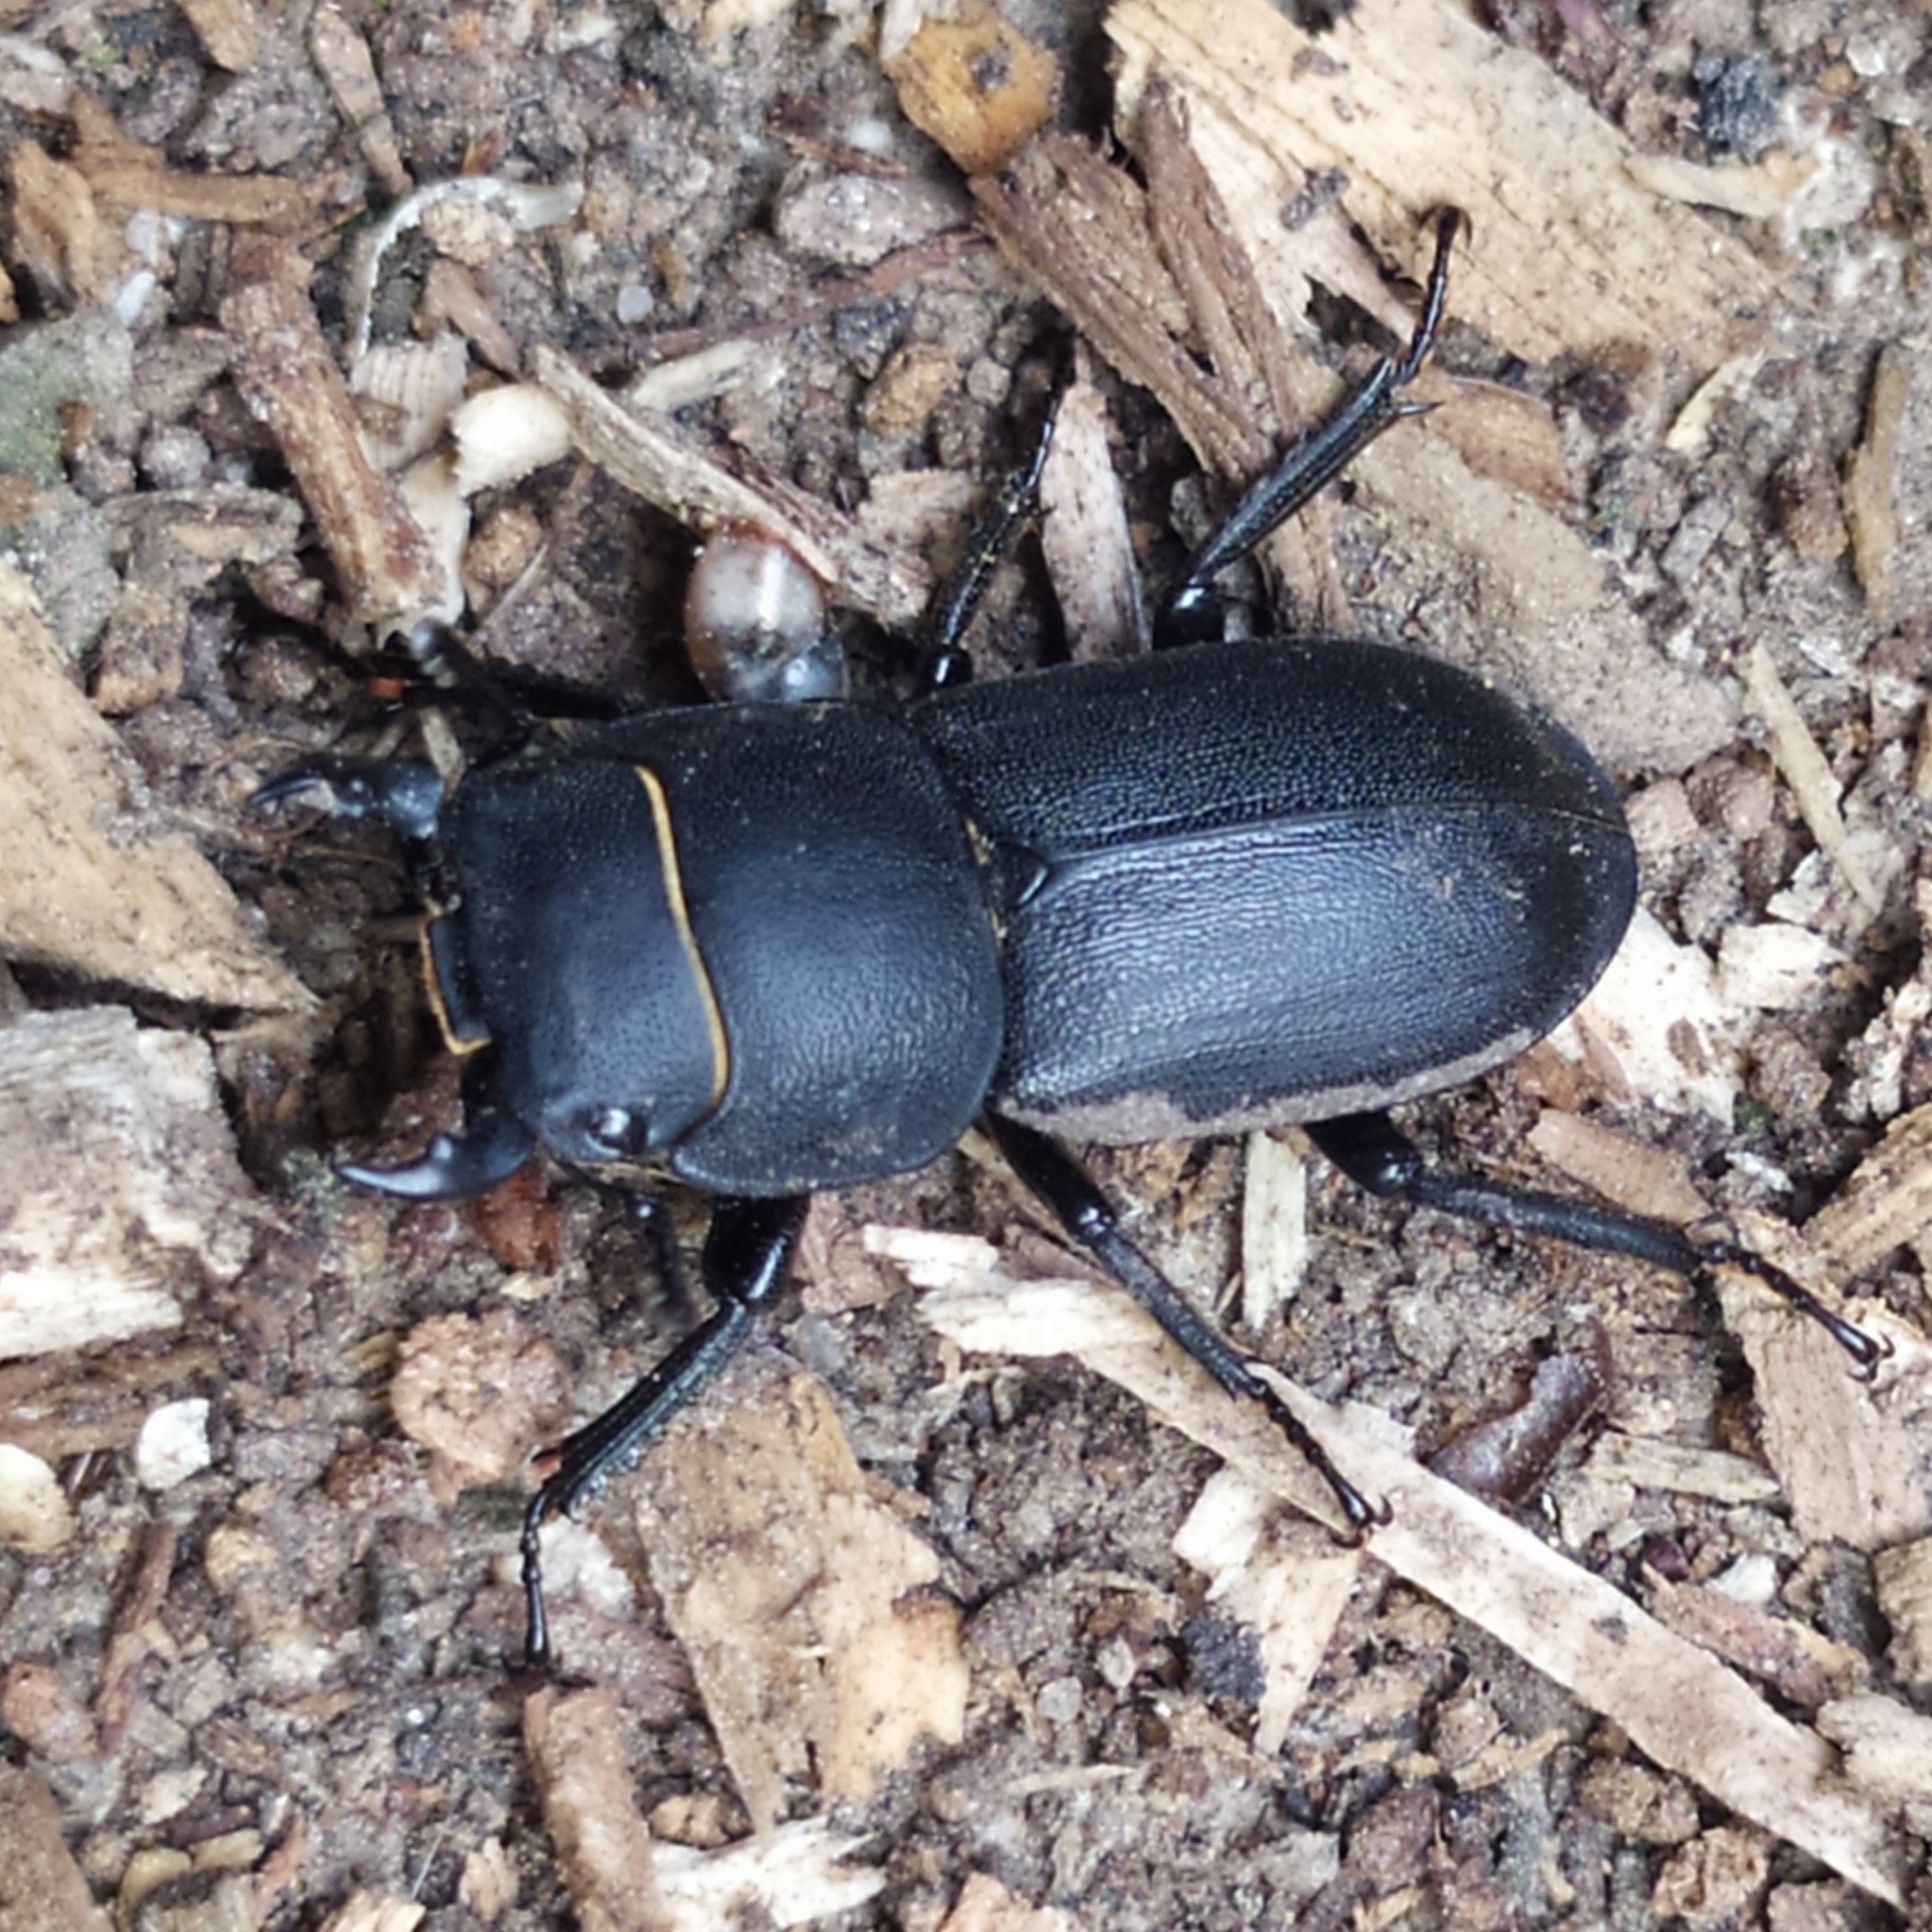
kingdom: Animalia
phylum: Arthropoda
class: Insecta
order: Coleoptera
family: Lucanidae
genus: Dorcus
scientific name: Dorcus parallelipipedus
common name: Lesser stag beetle
